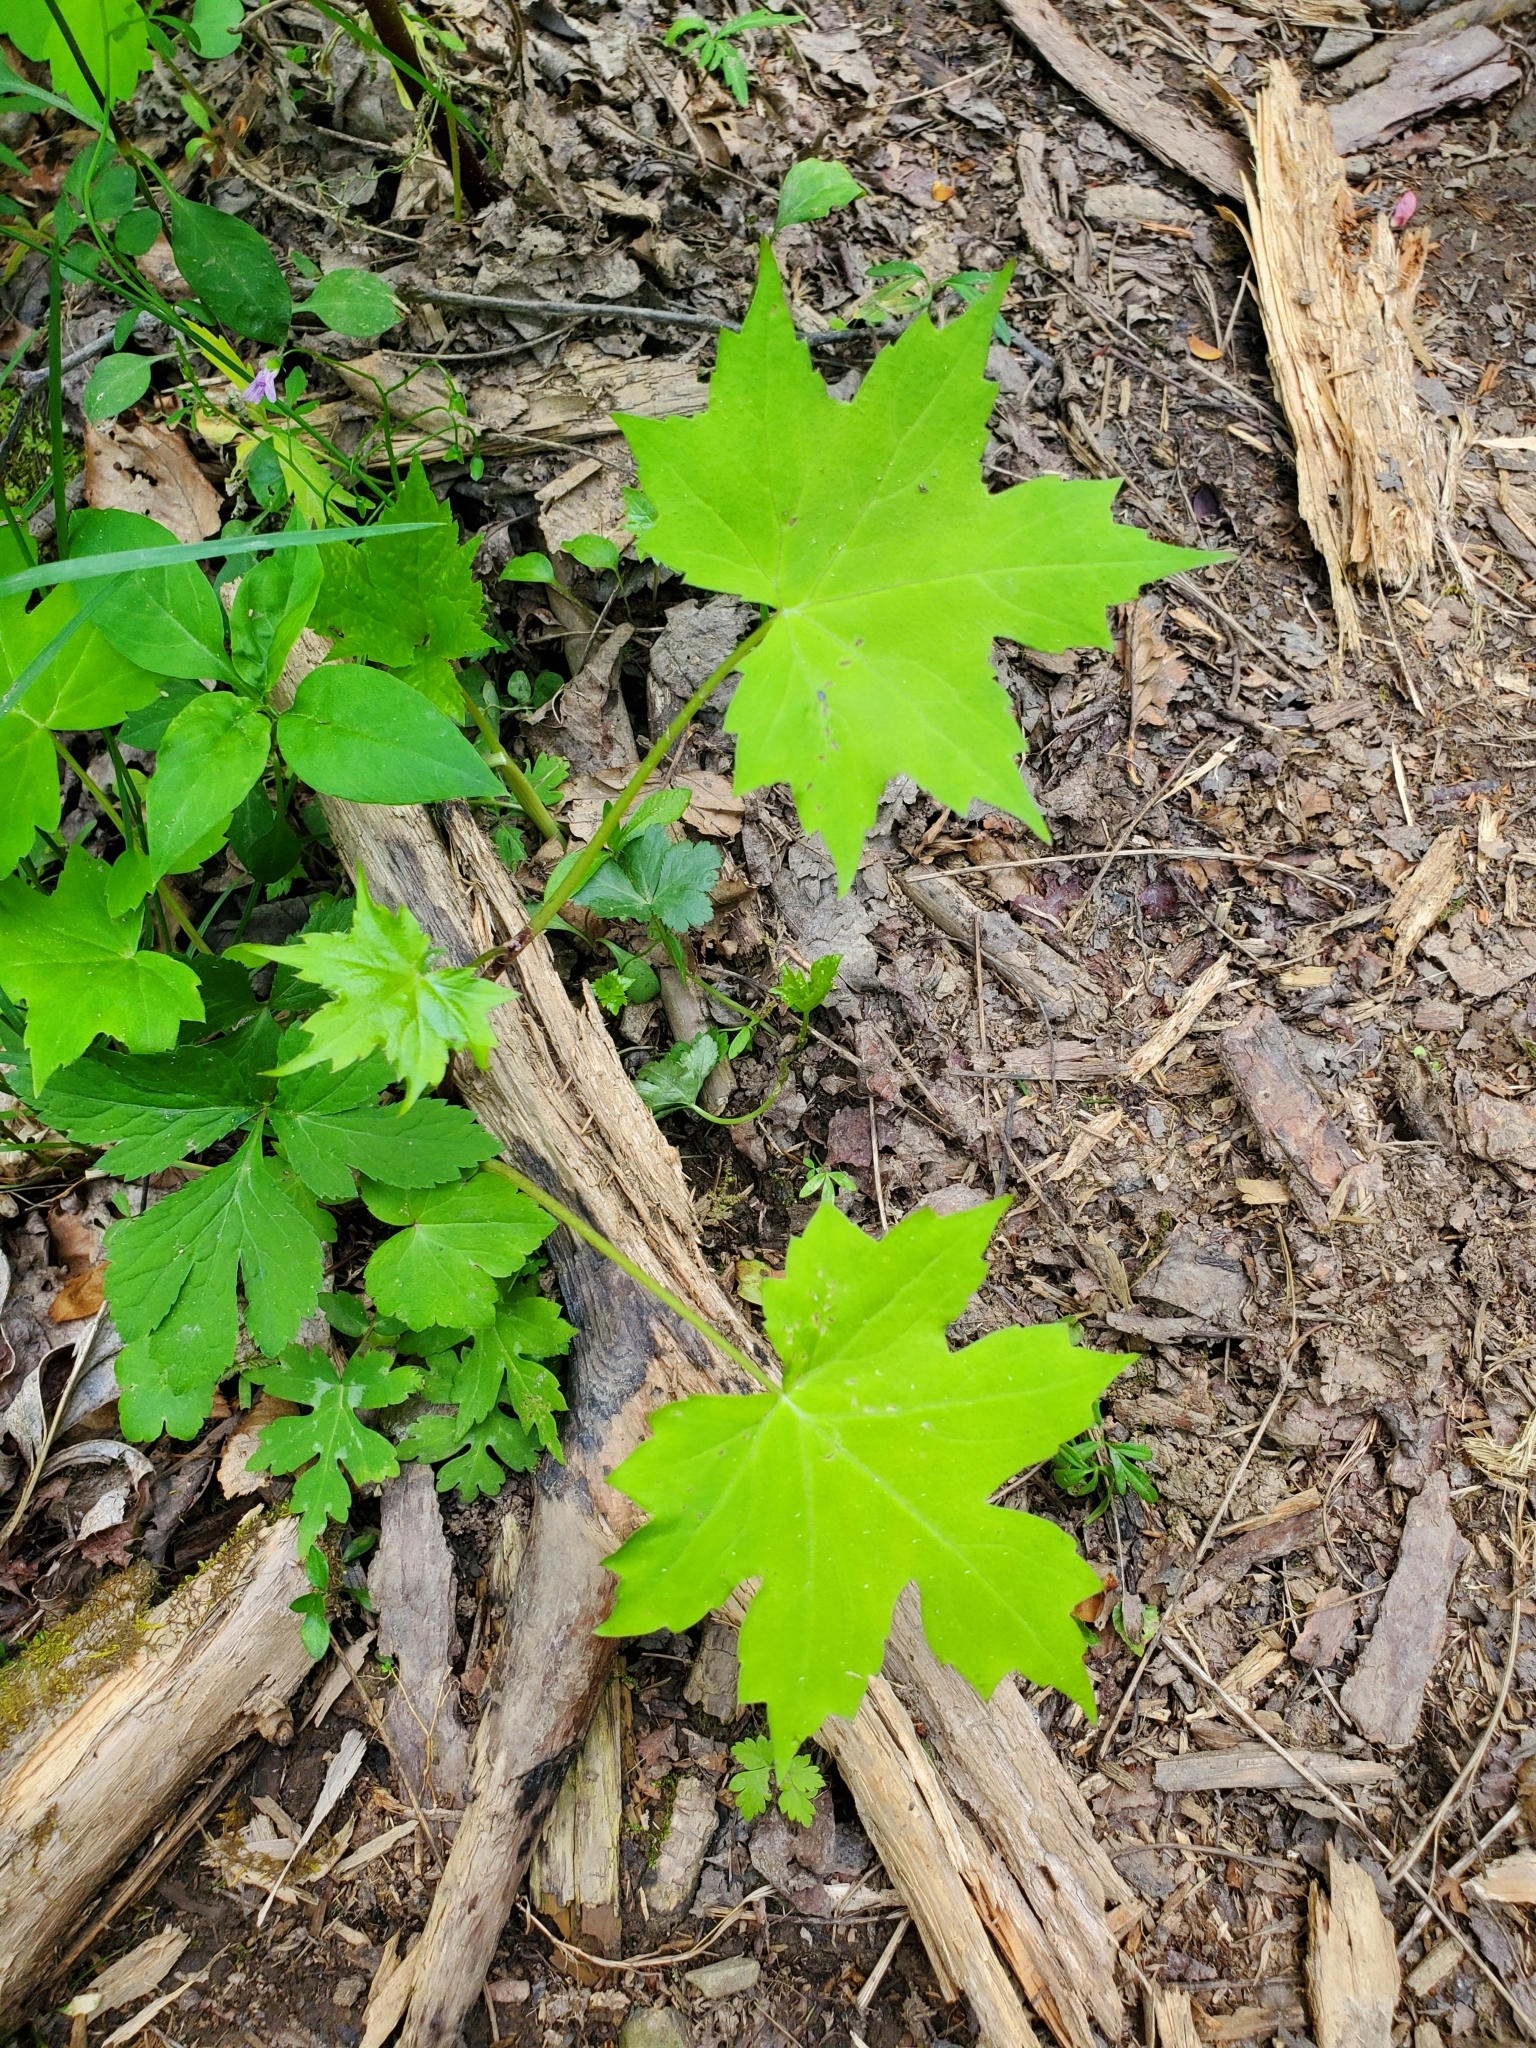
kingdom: Plantae
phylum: Tracheophyta
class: Magnoliopsida
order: Boraginales
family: Hydrophyllaceae
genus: Hydrophyllum
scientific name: Hydrophyllum canadense
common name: Canada waterleaf
